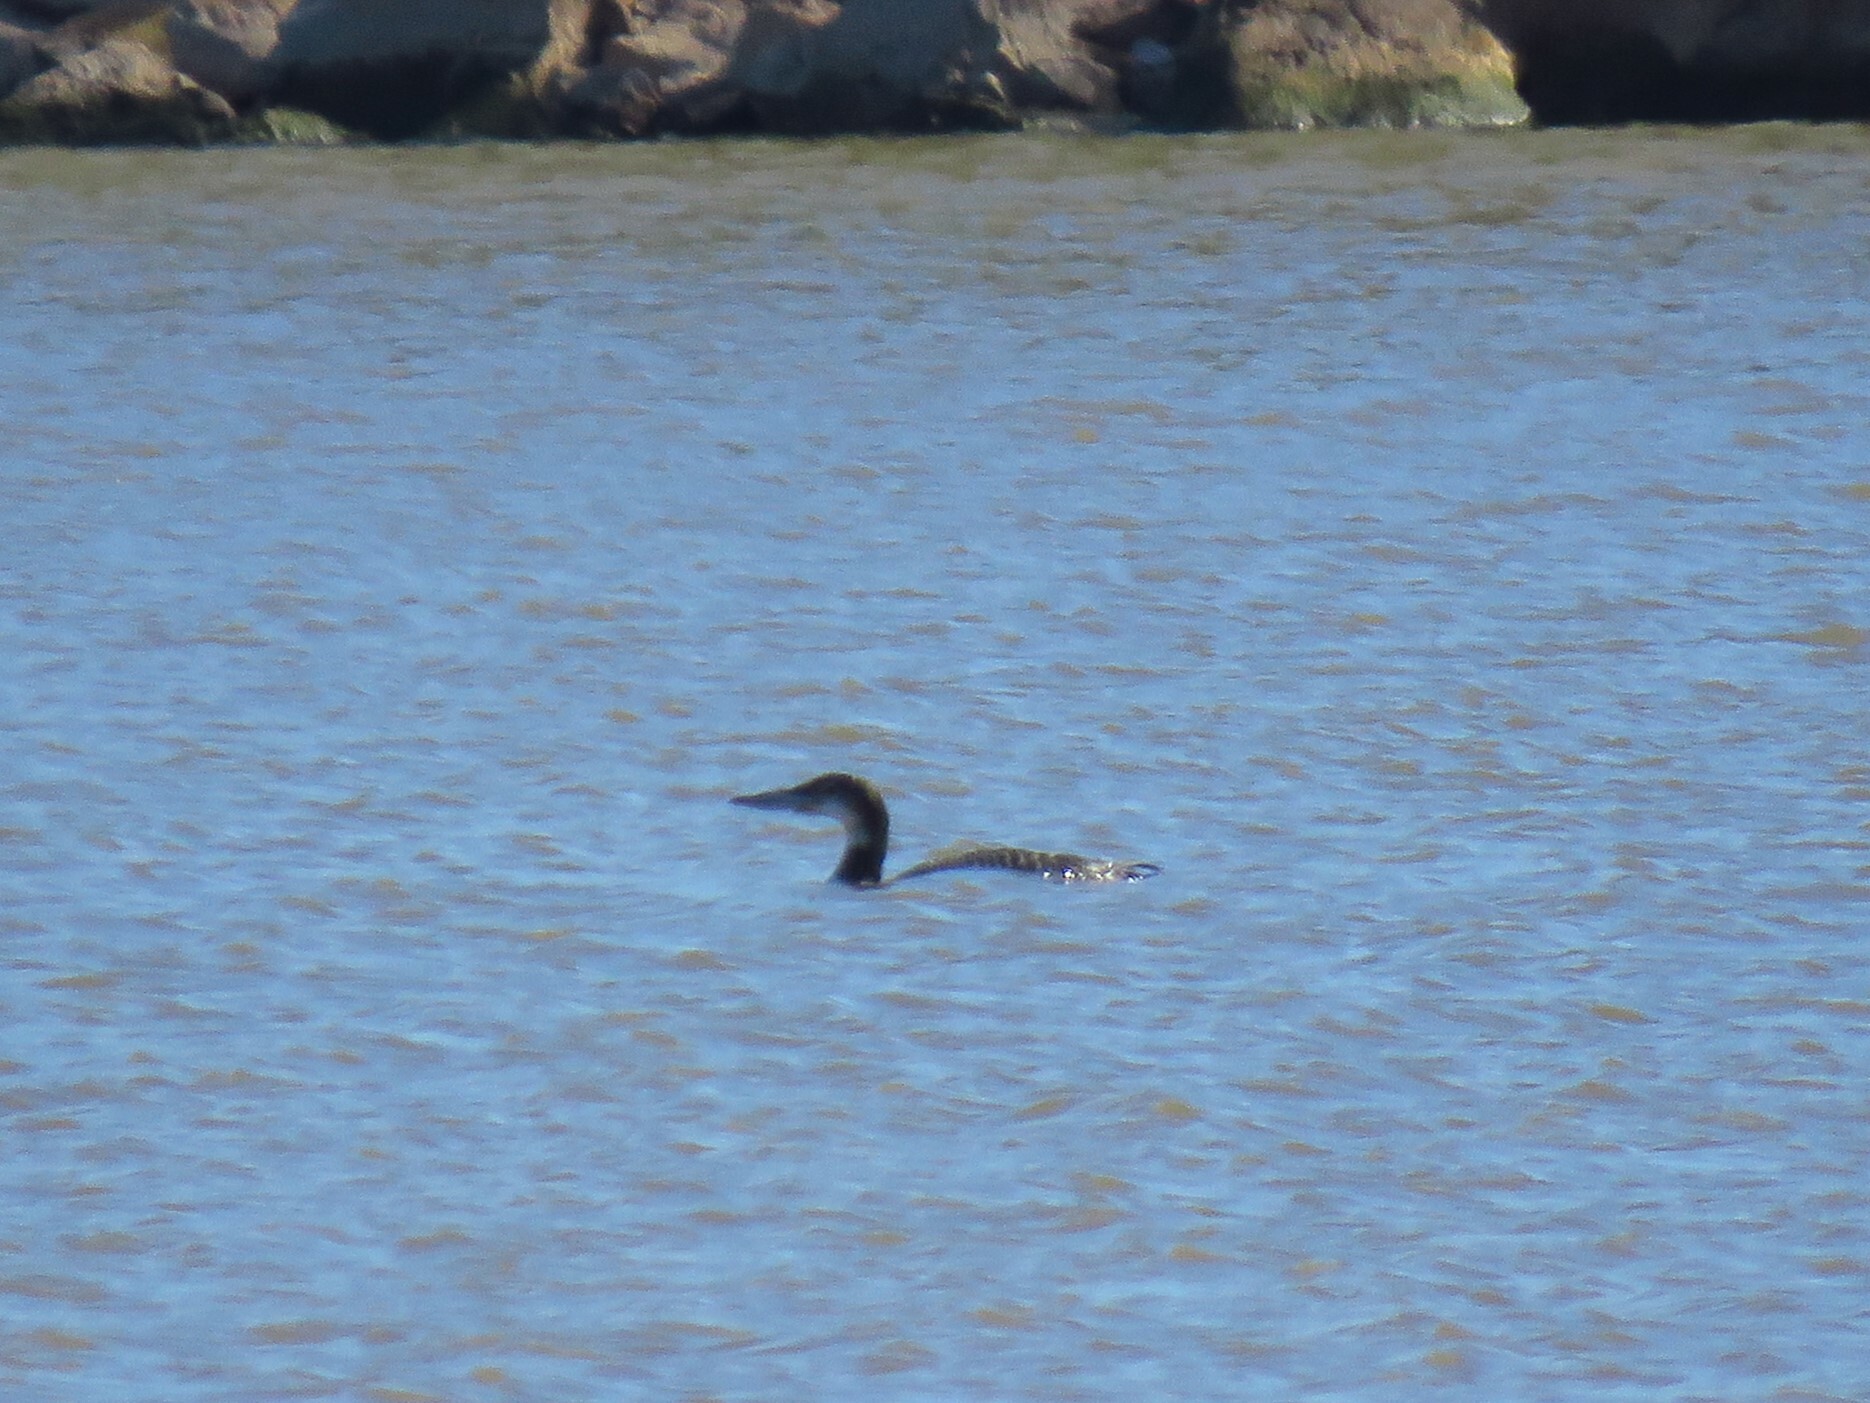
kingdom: Animalia
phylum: Chordata
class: Aves
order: Gaviiformes
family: Gaviidae
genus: Gavia
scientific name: Gavia immer
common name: Common loon
